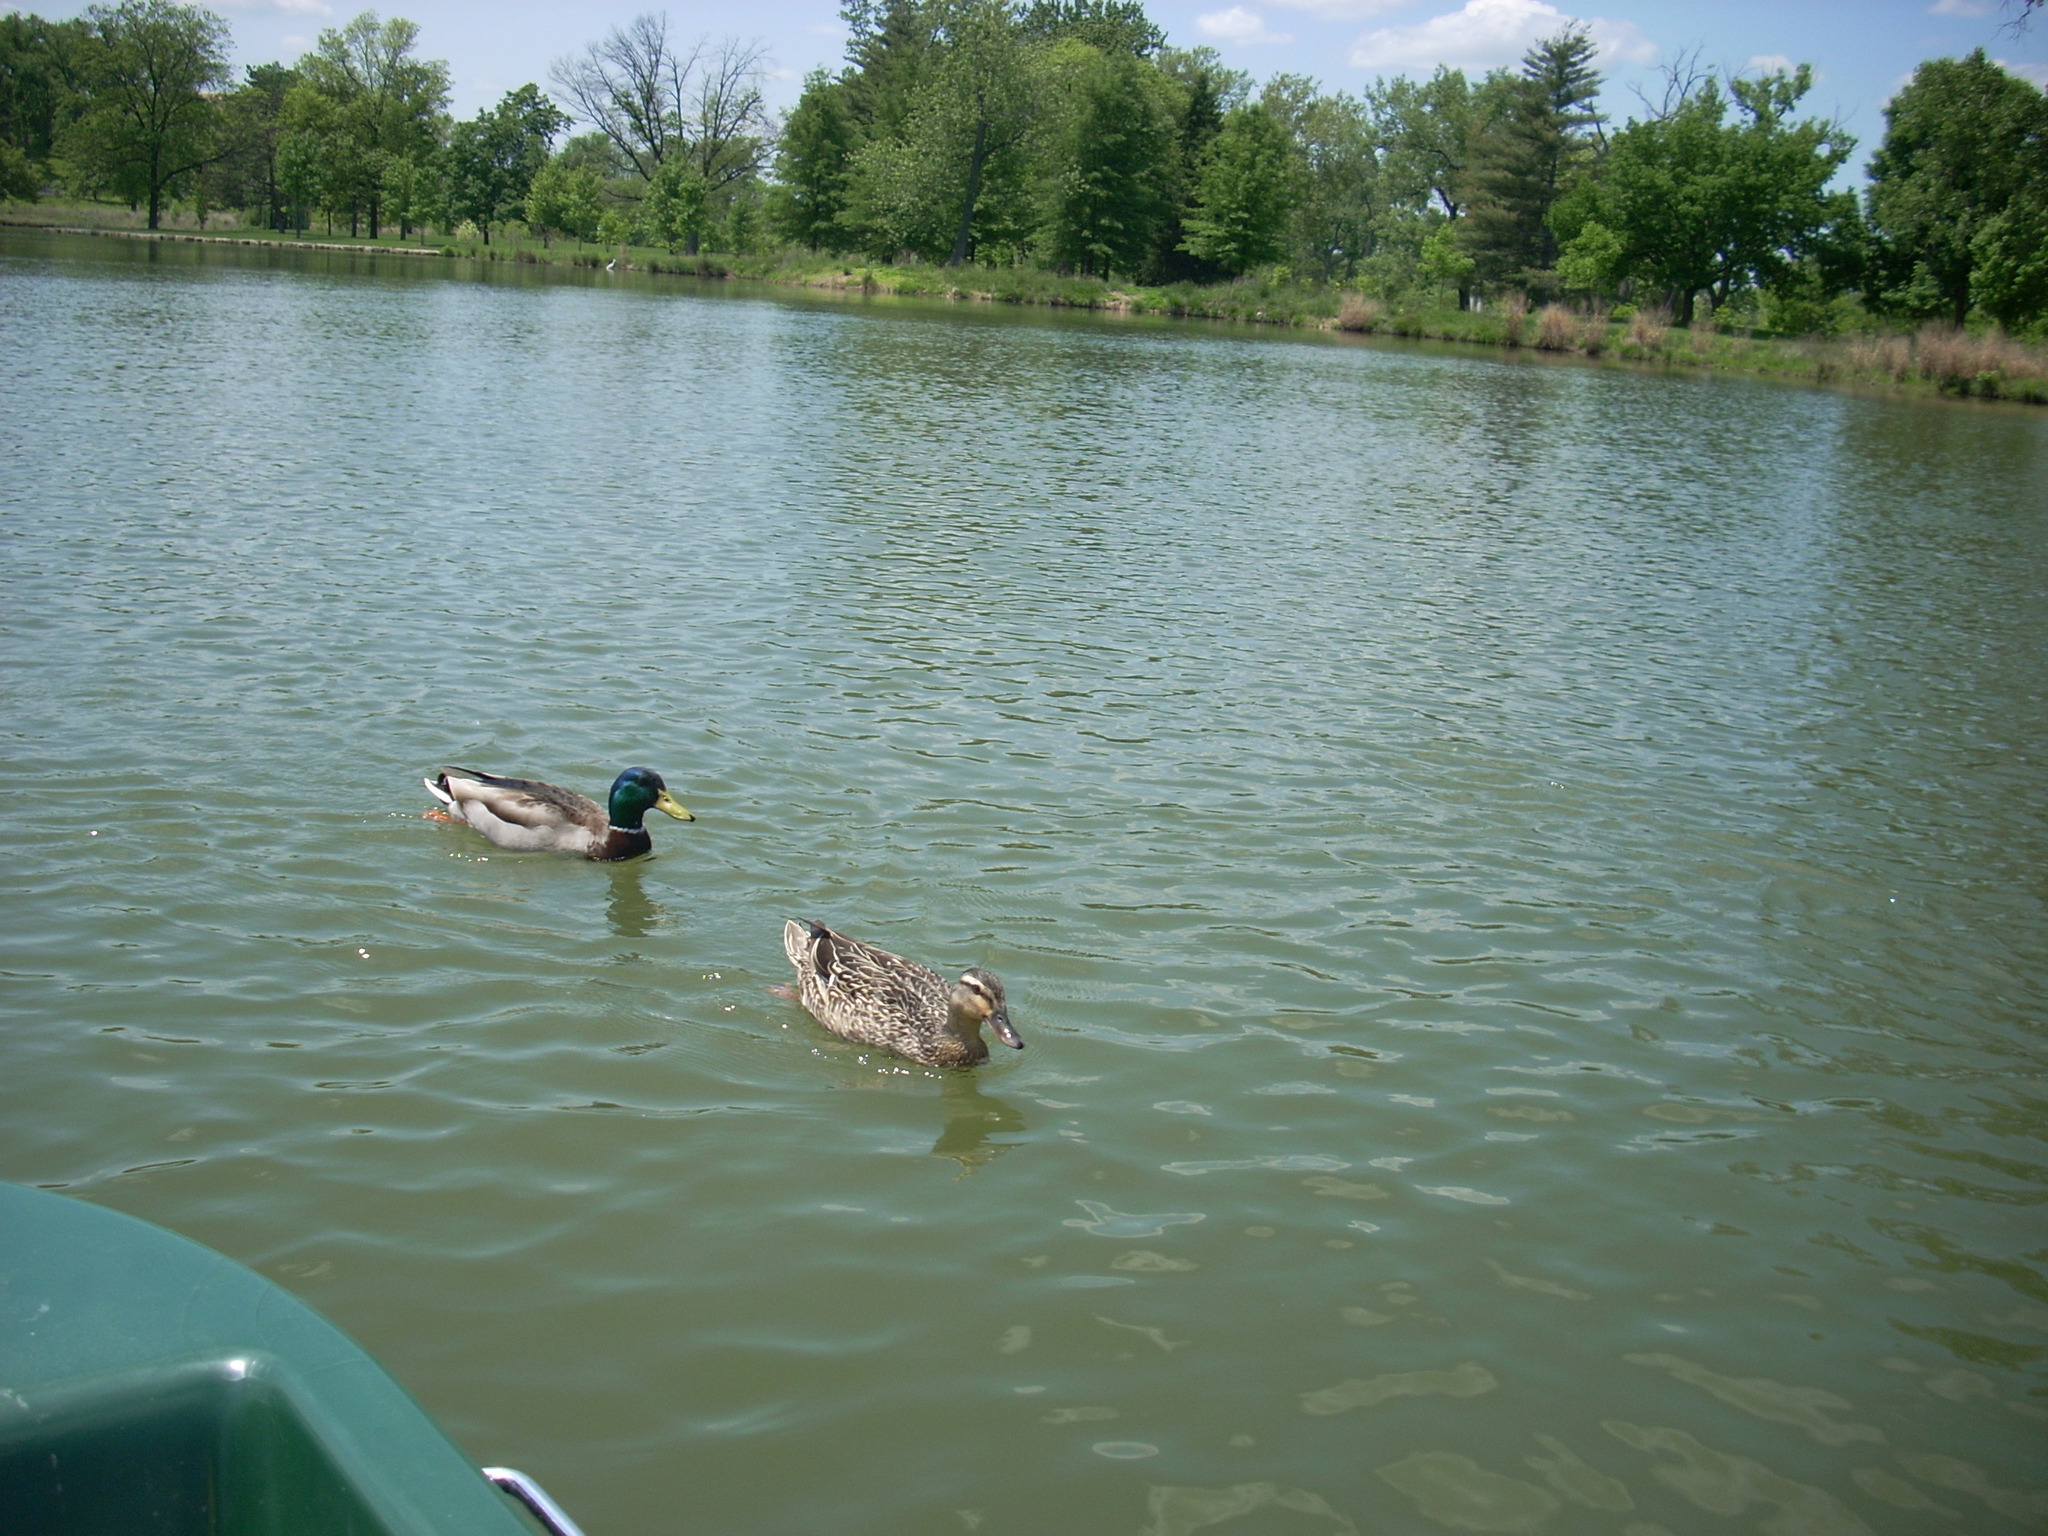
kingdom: Animalia
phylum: Chordata
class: Aves
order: Anseriformes
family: Anatidae
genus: Anas
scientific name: Anas platyrhynchos
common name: Mallard
